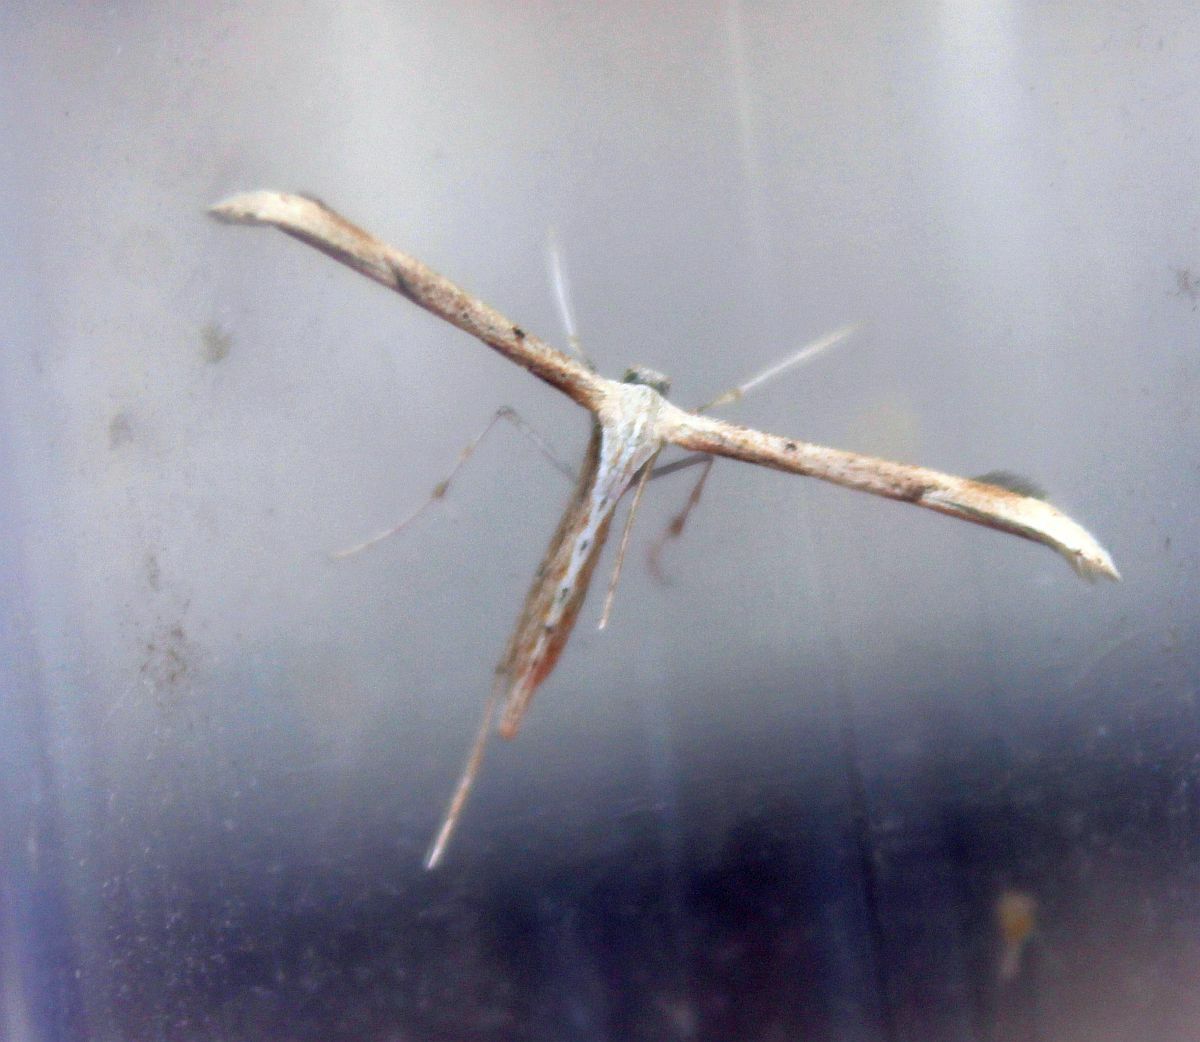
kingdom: Animalia
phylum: Arthropoda
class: Insecta
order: Lepidoptera
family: Pterophoridae
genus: Emmelina
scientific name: Emmelina monodactyla
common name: Common plume
